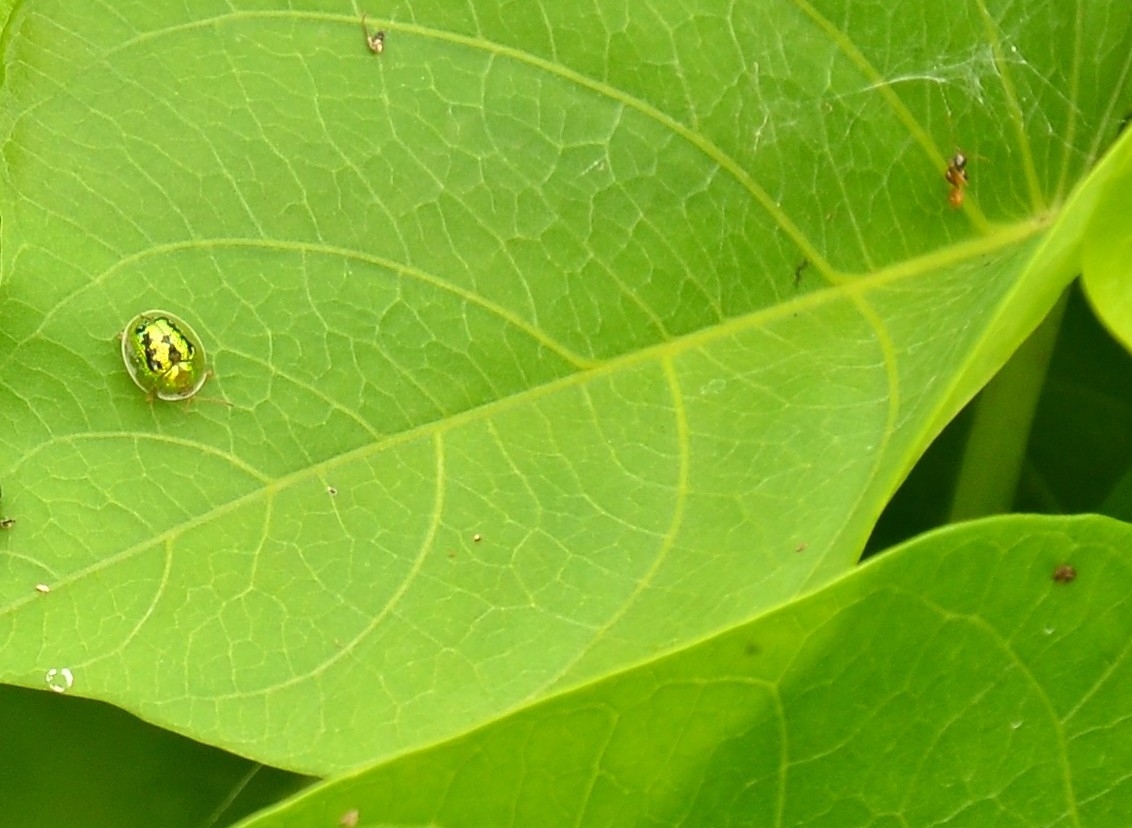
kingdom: Animalia
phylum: Arthropoda
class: Insecta
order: Coleoptera
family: Chrysomelidae
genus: Cassida
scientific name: Cassida circumdata
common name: Tortoise beetle
